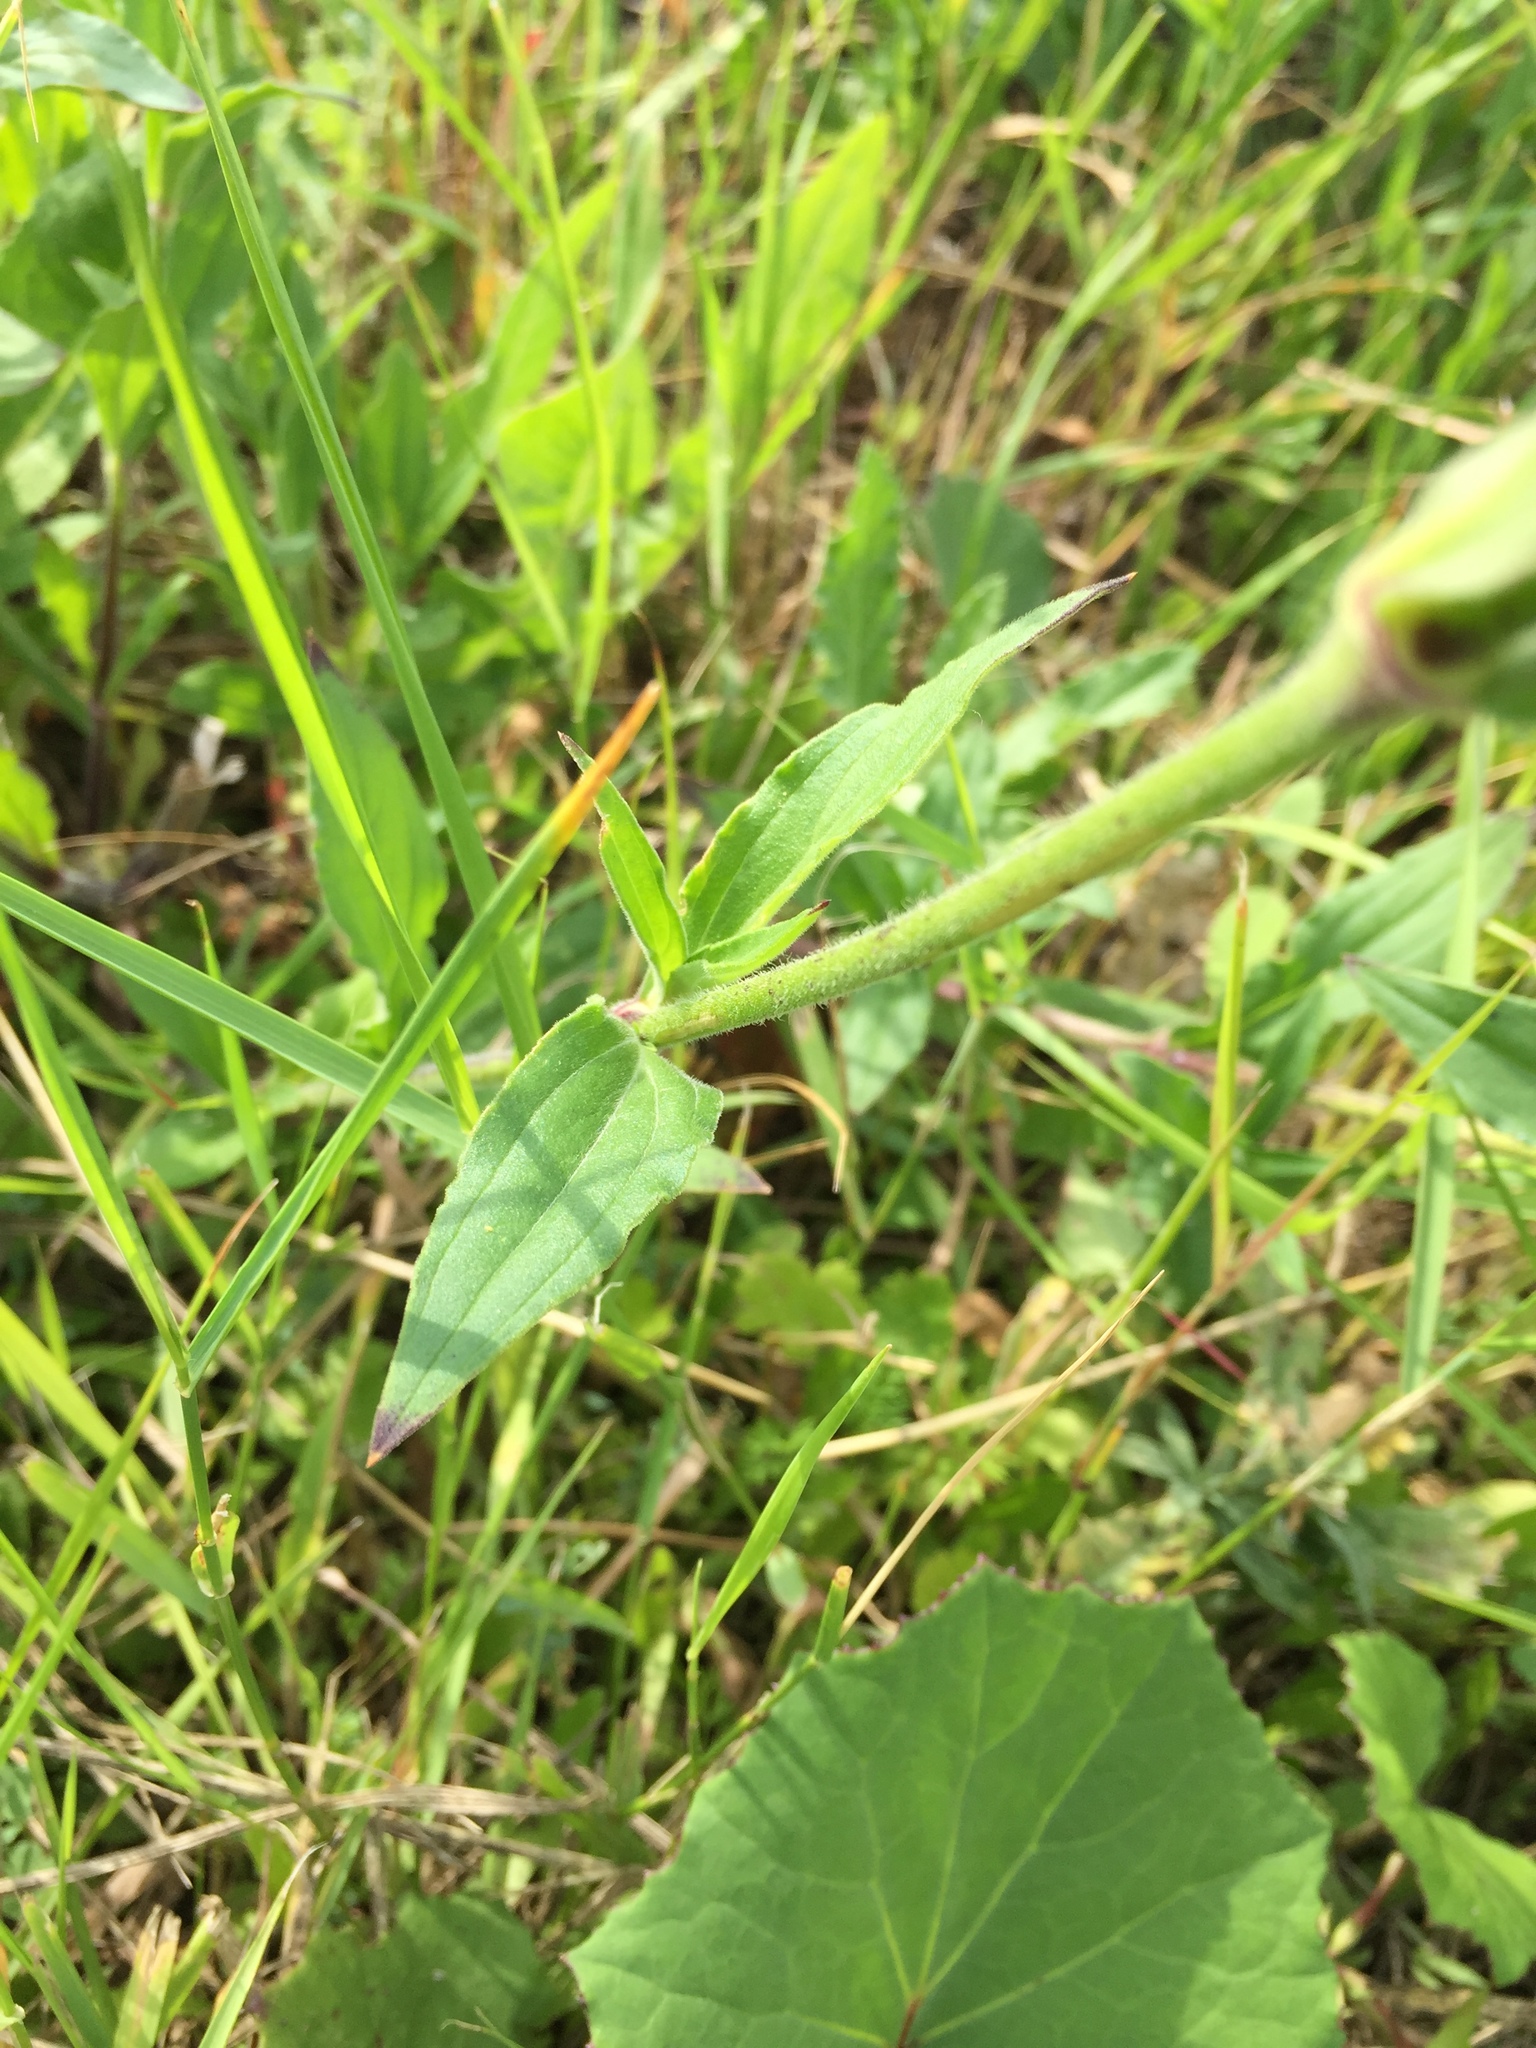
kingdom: Plantae
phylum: Tracheophyta
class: Magnoliopsida
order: Caryophyllales
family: Caryophyllaceae
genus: Silene
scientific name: Silene latifolia
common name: White campion
